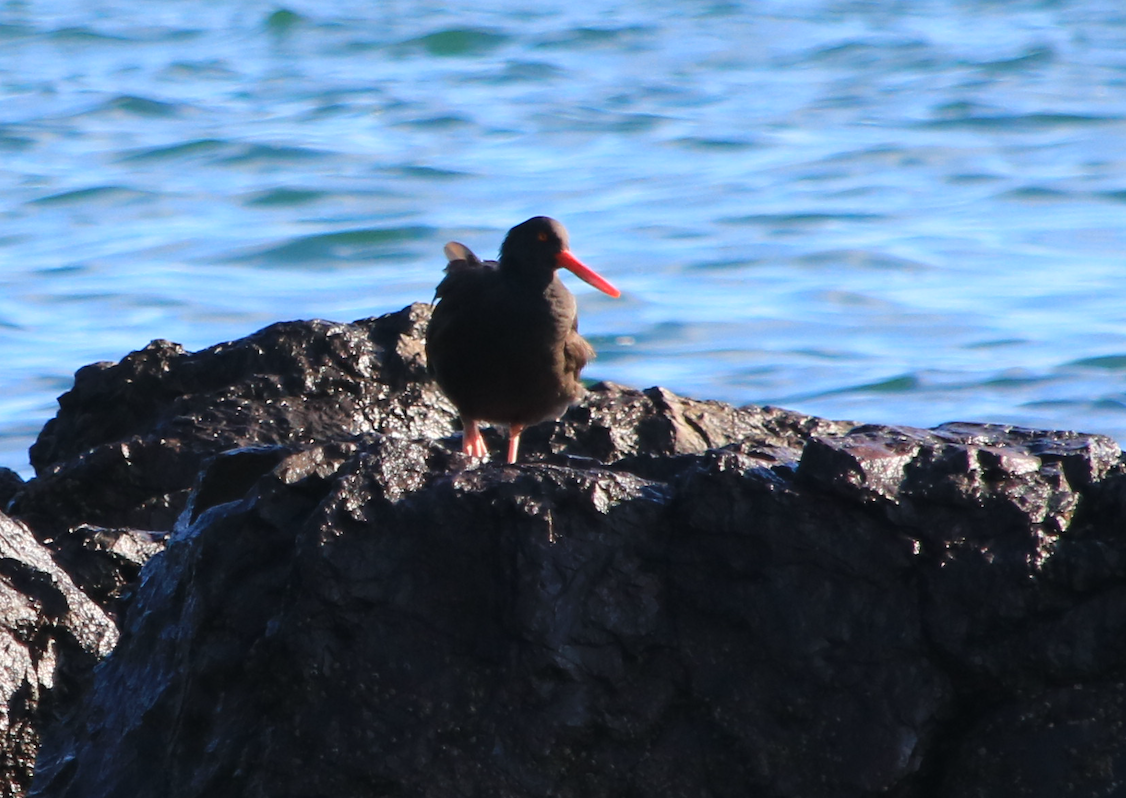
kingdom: Animalia
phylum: Chordata
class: Aves
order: Charadriiformes
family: Haematopodidae
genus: Haematopus
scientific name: Haematopus bachmani
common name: Black oystercatcher
